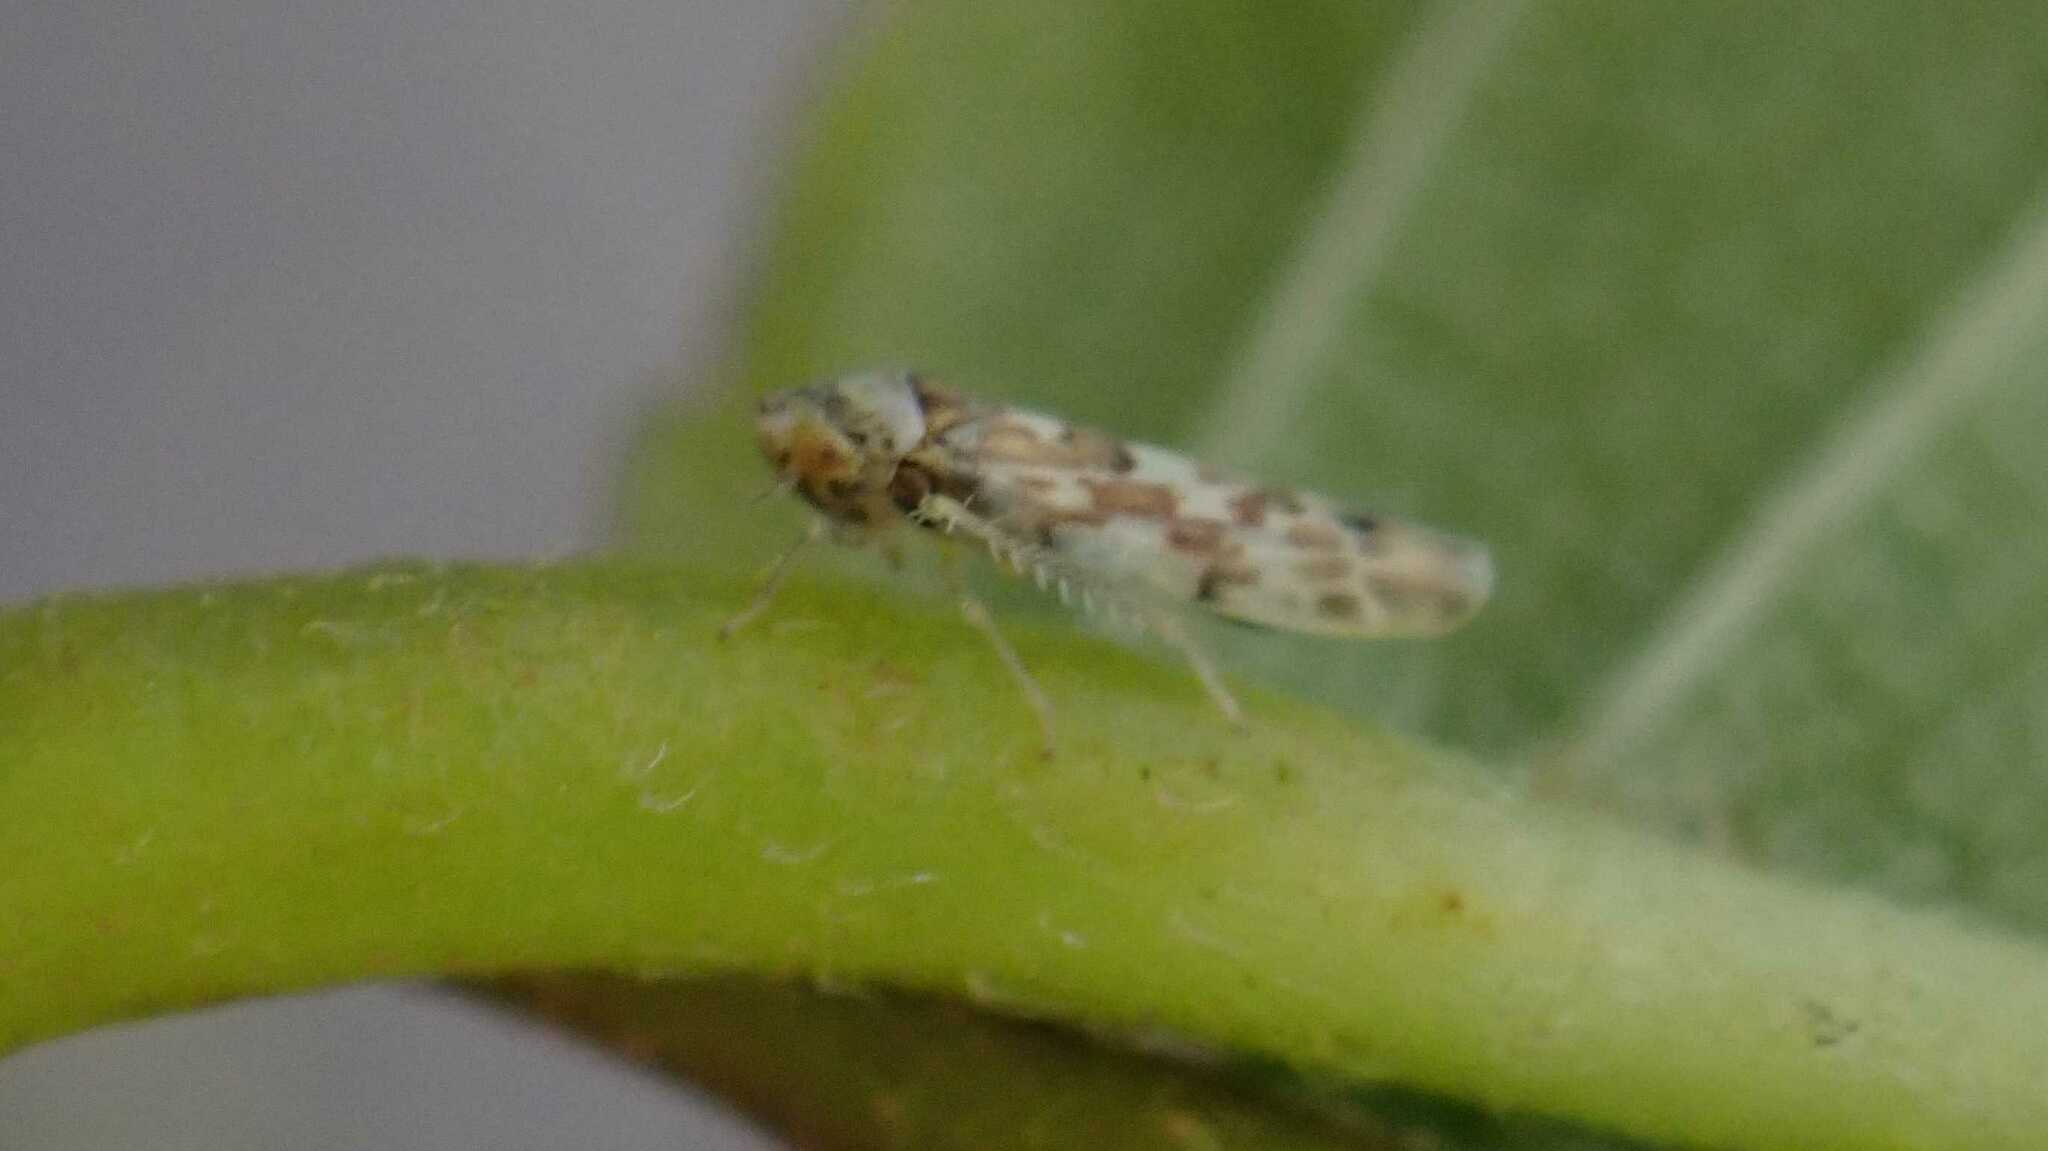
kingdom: Animalia
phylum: Arthropoda
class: Insecta
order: Hemiptera
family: Cicadellidae
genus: Tautoneura
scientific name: Tautoneura polymitusa
